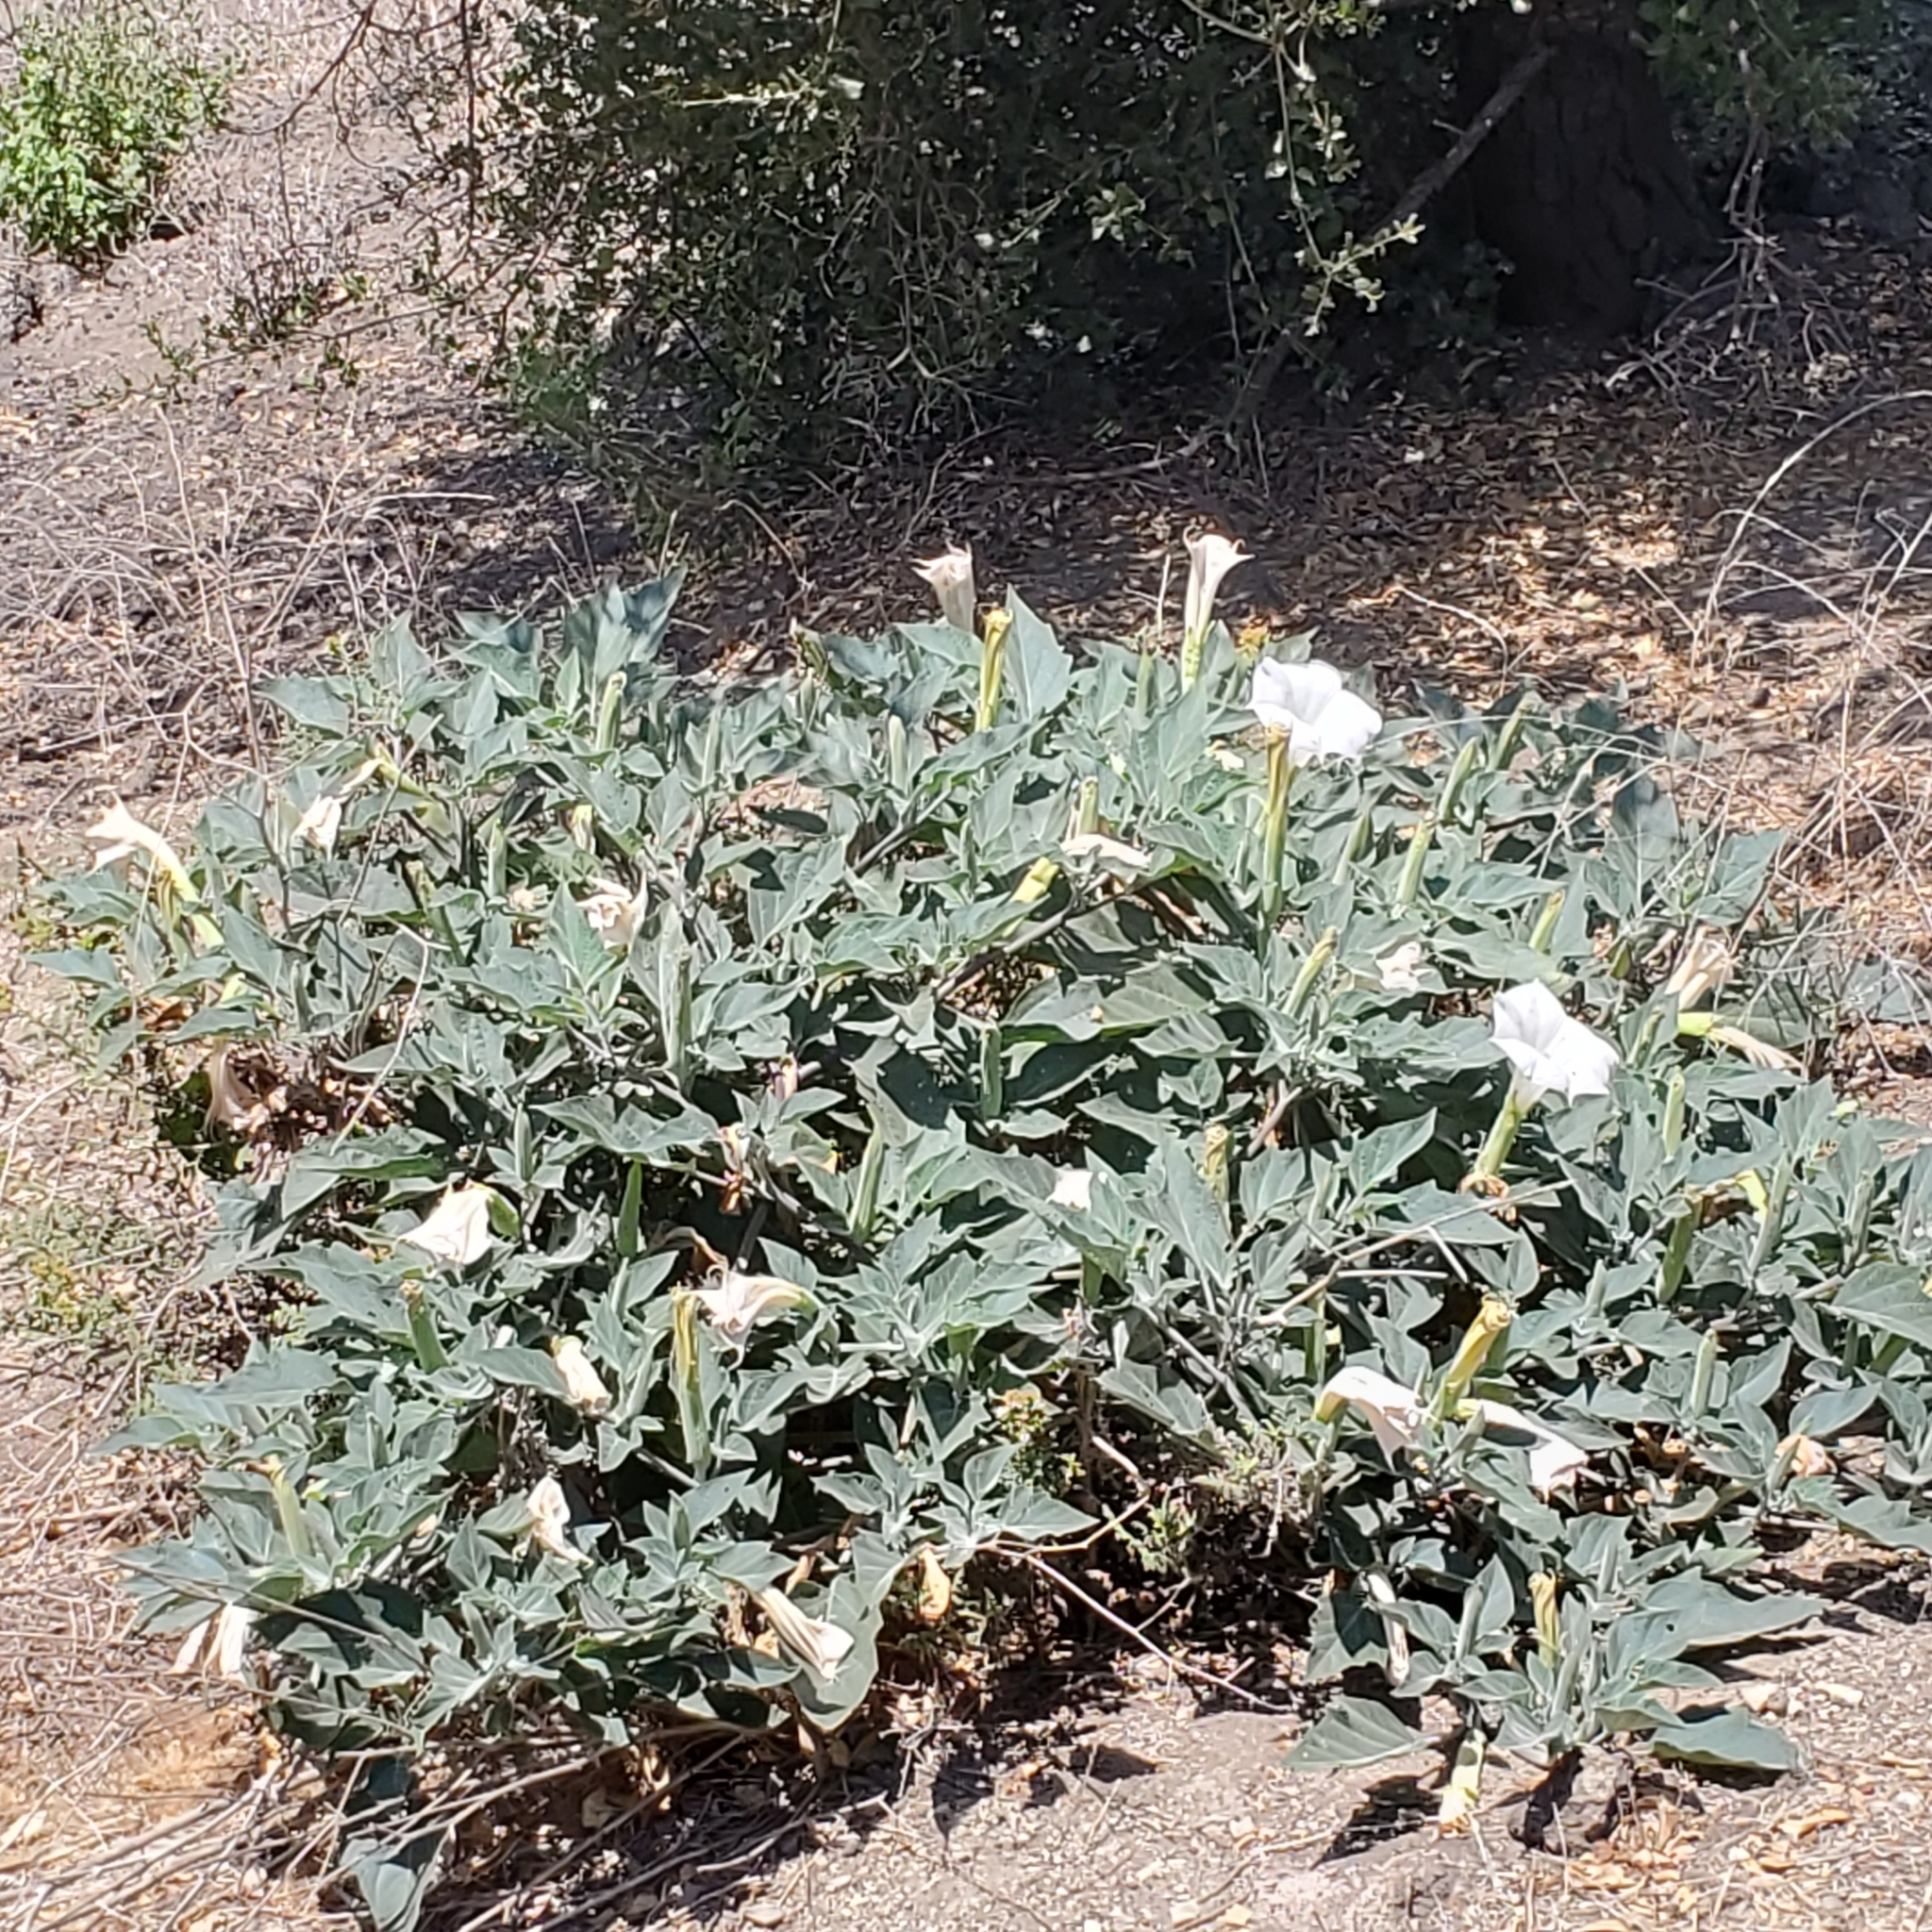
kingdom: Plantae
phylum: Tracheophyta
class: Magnoliopsida
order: Solanales
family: Solanaceae
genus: Datura
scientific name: Datura wrightii
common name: Sacred thorn-apple
